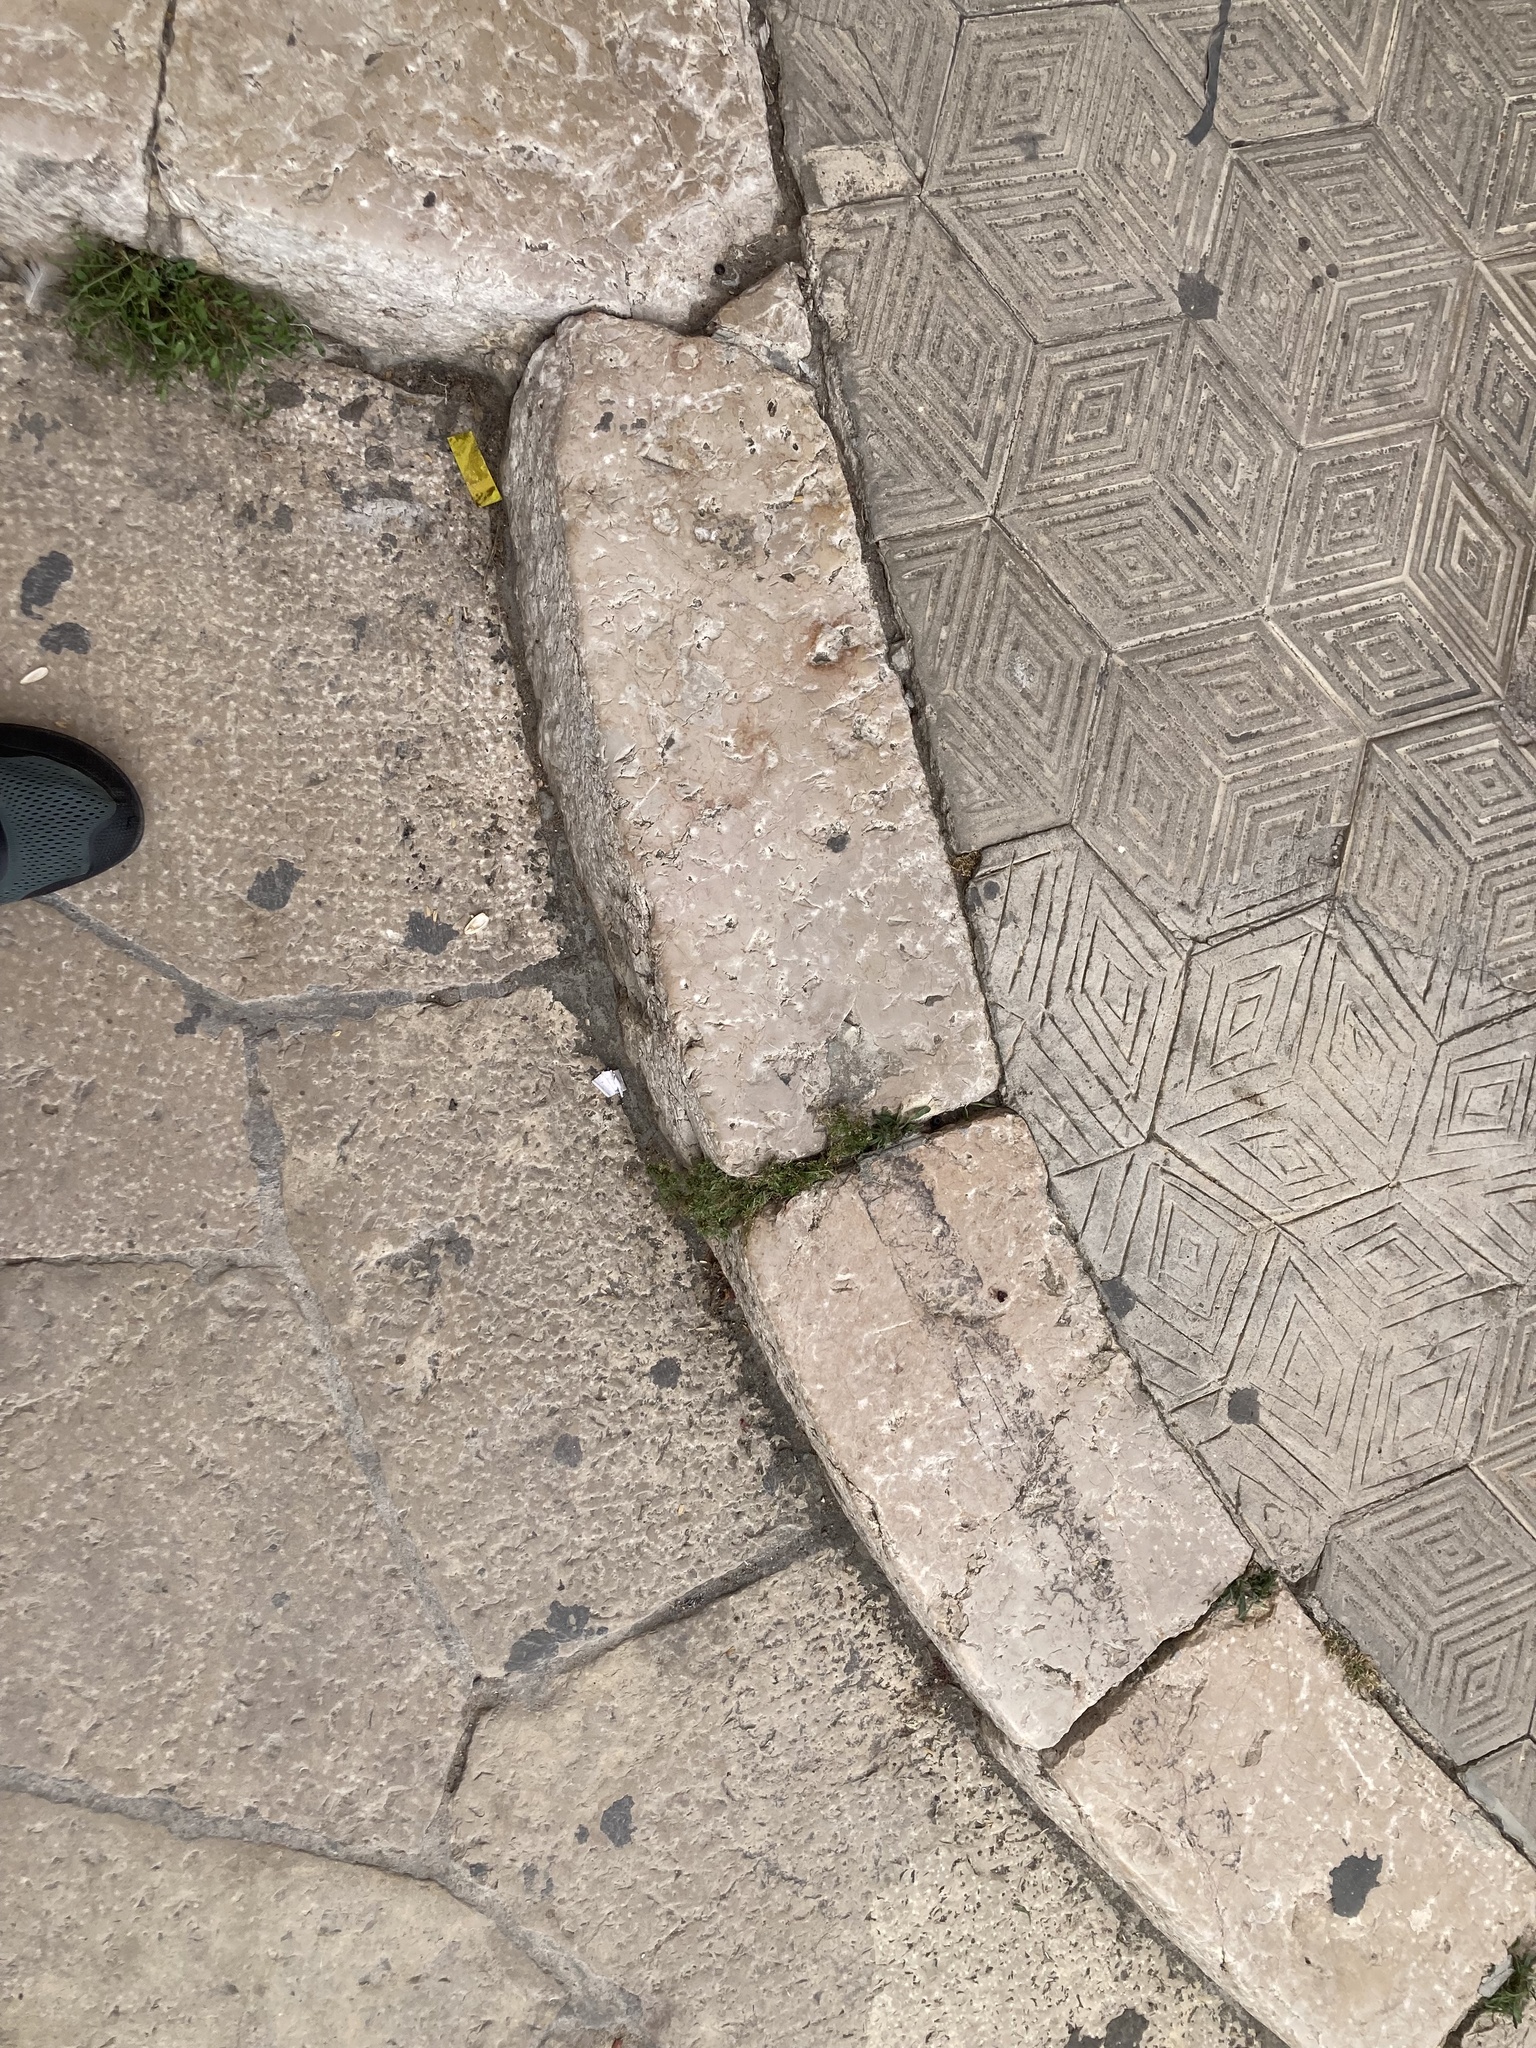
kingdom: Plantae
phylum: Tracheophyta
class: Magnoliopsida
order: Brassicales
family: Brassicaceae
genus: Lepidium
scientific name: Lepidium didymum
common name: Lesser swinecress
